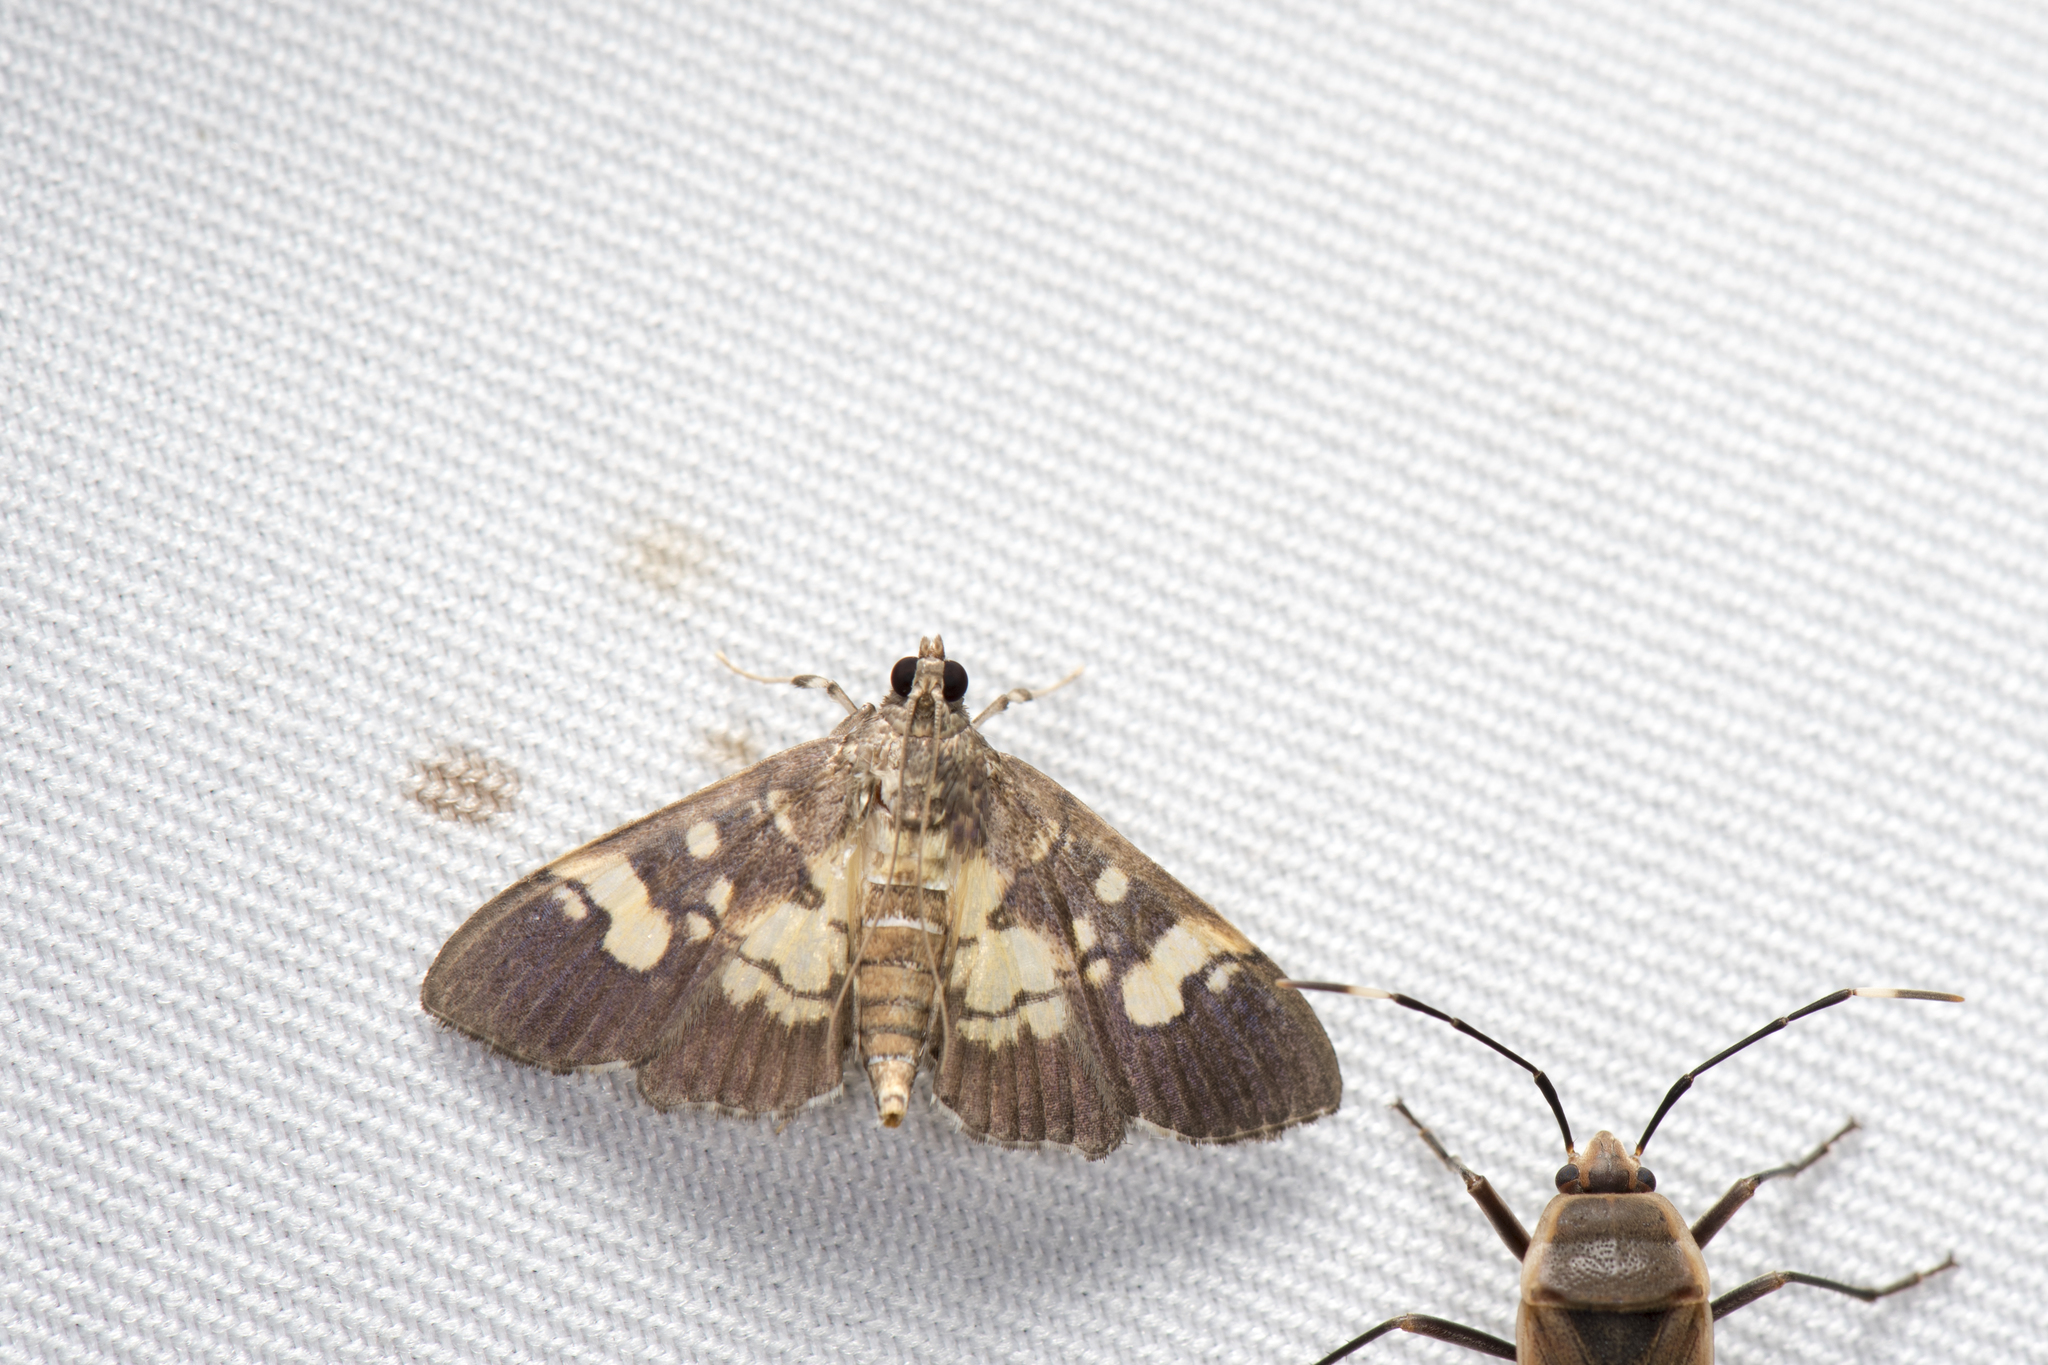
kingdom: Animalia
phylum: Arthropoda
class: Insecta
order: Lepidoptera
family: Crambidae
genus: Uresiphita
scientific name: Uresiphita quinquigera
